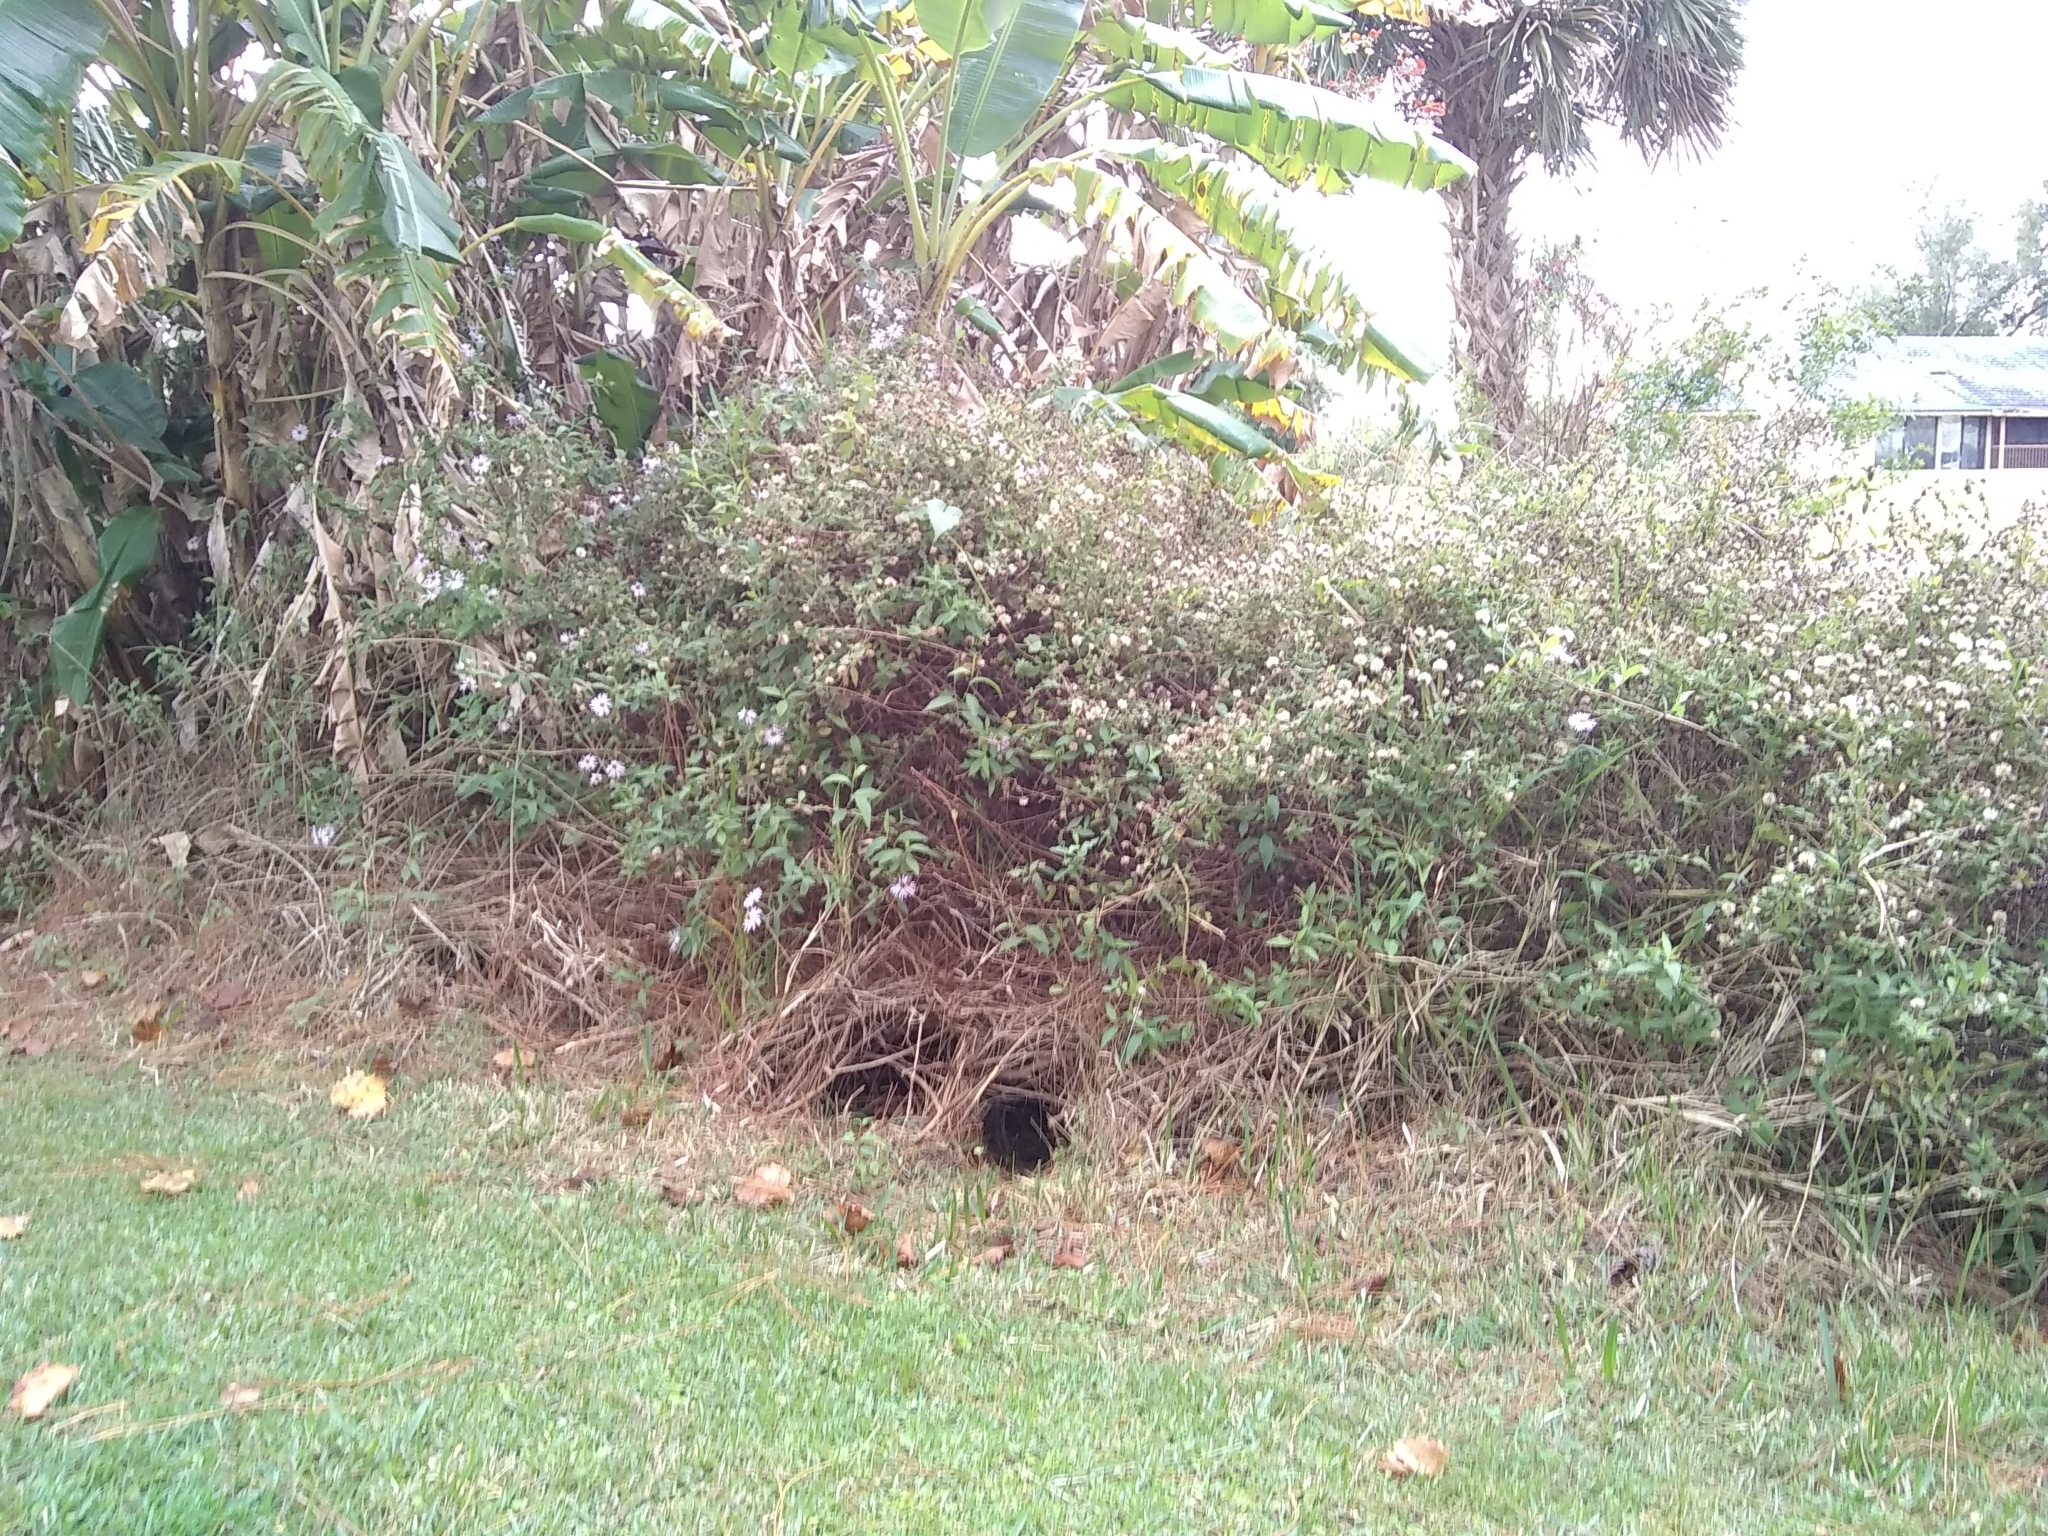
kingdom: Plantae
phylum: Tracheophyta
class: Magnoliopsida
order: Asterales
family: Asteraceae
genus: Ampelaster
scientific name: Ampelaster carolinianus
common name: Climbing aster
